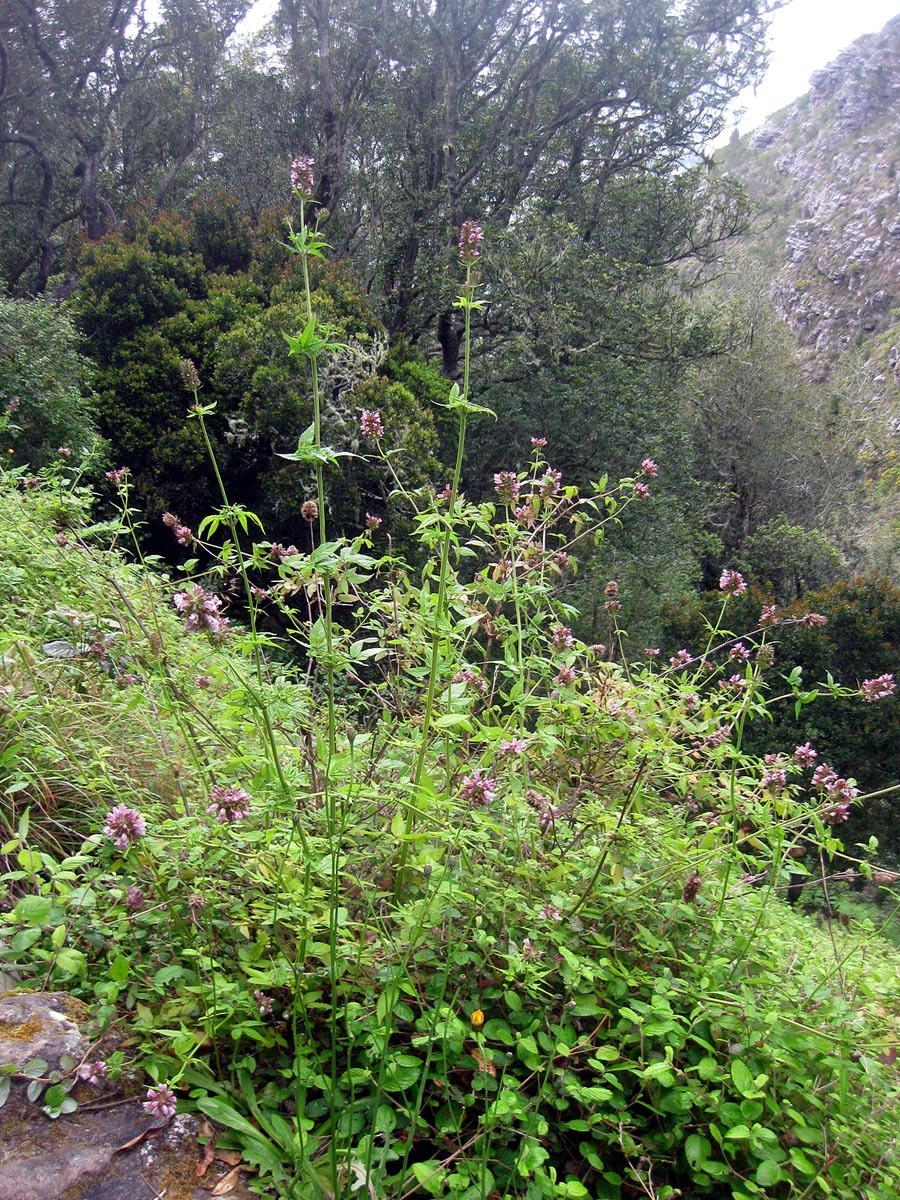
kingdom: Plantae
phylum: Tracheophyta
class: Magnoliopsida
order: Lamiales
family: Lamiaceae
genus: Cedronella
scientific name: Cedronella canariensis
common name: Canary islands balm
